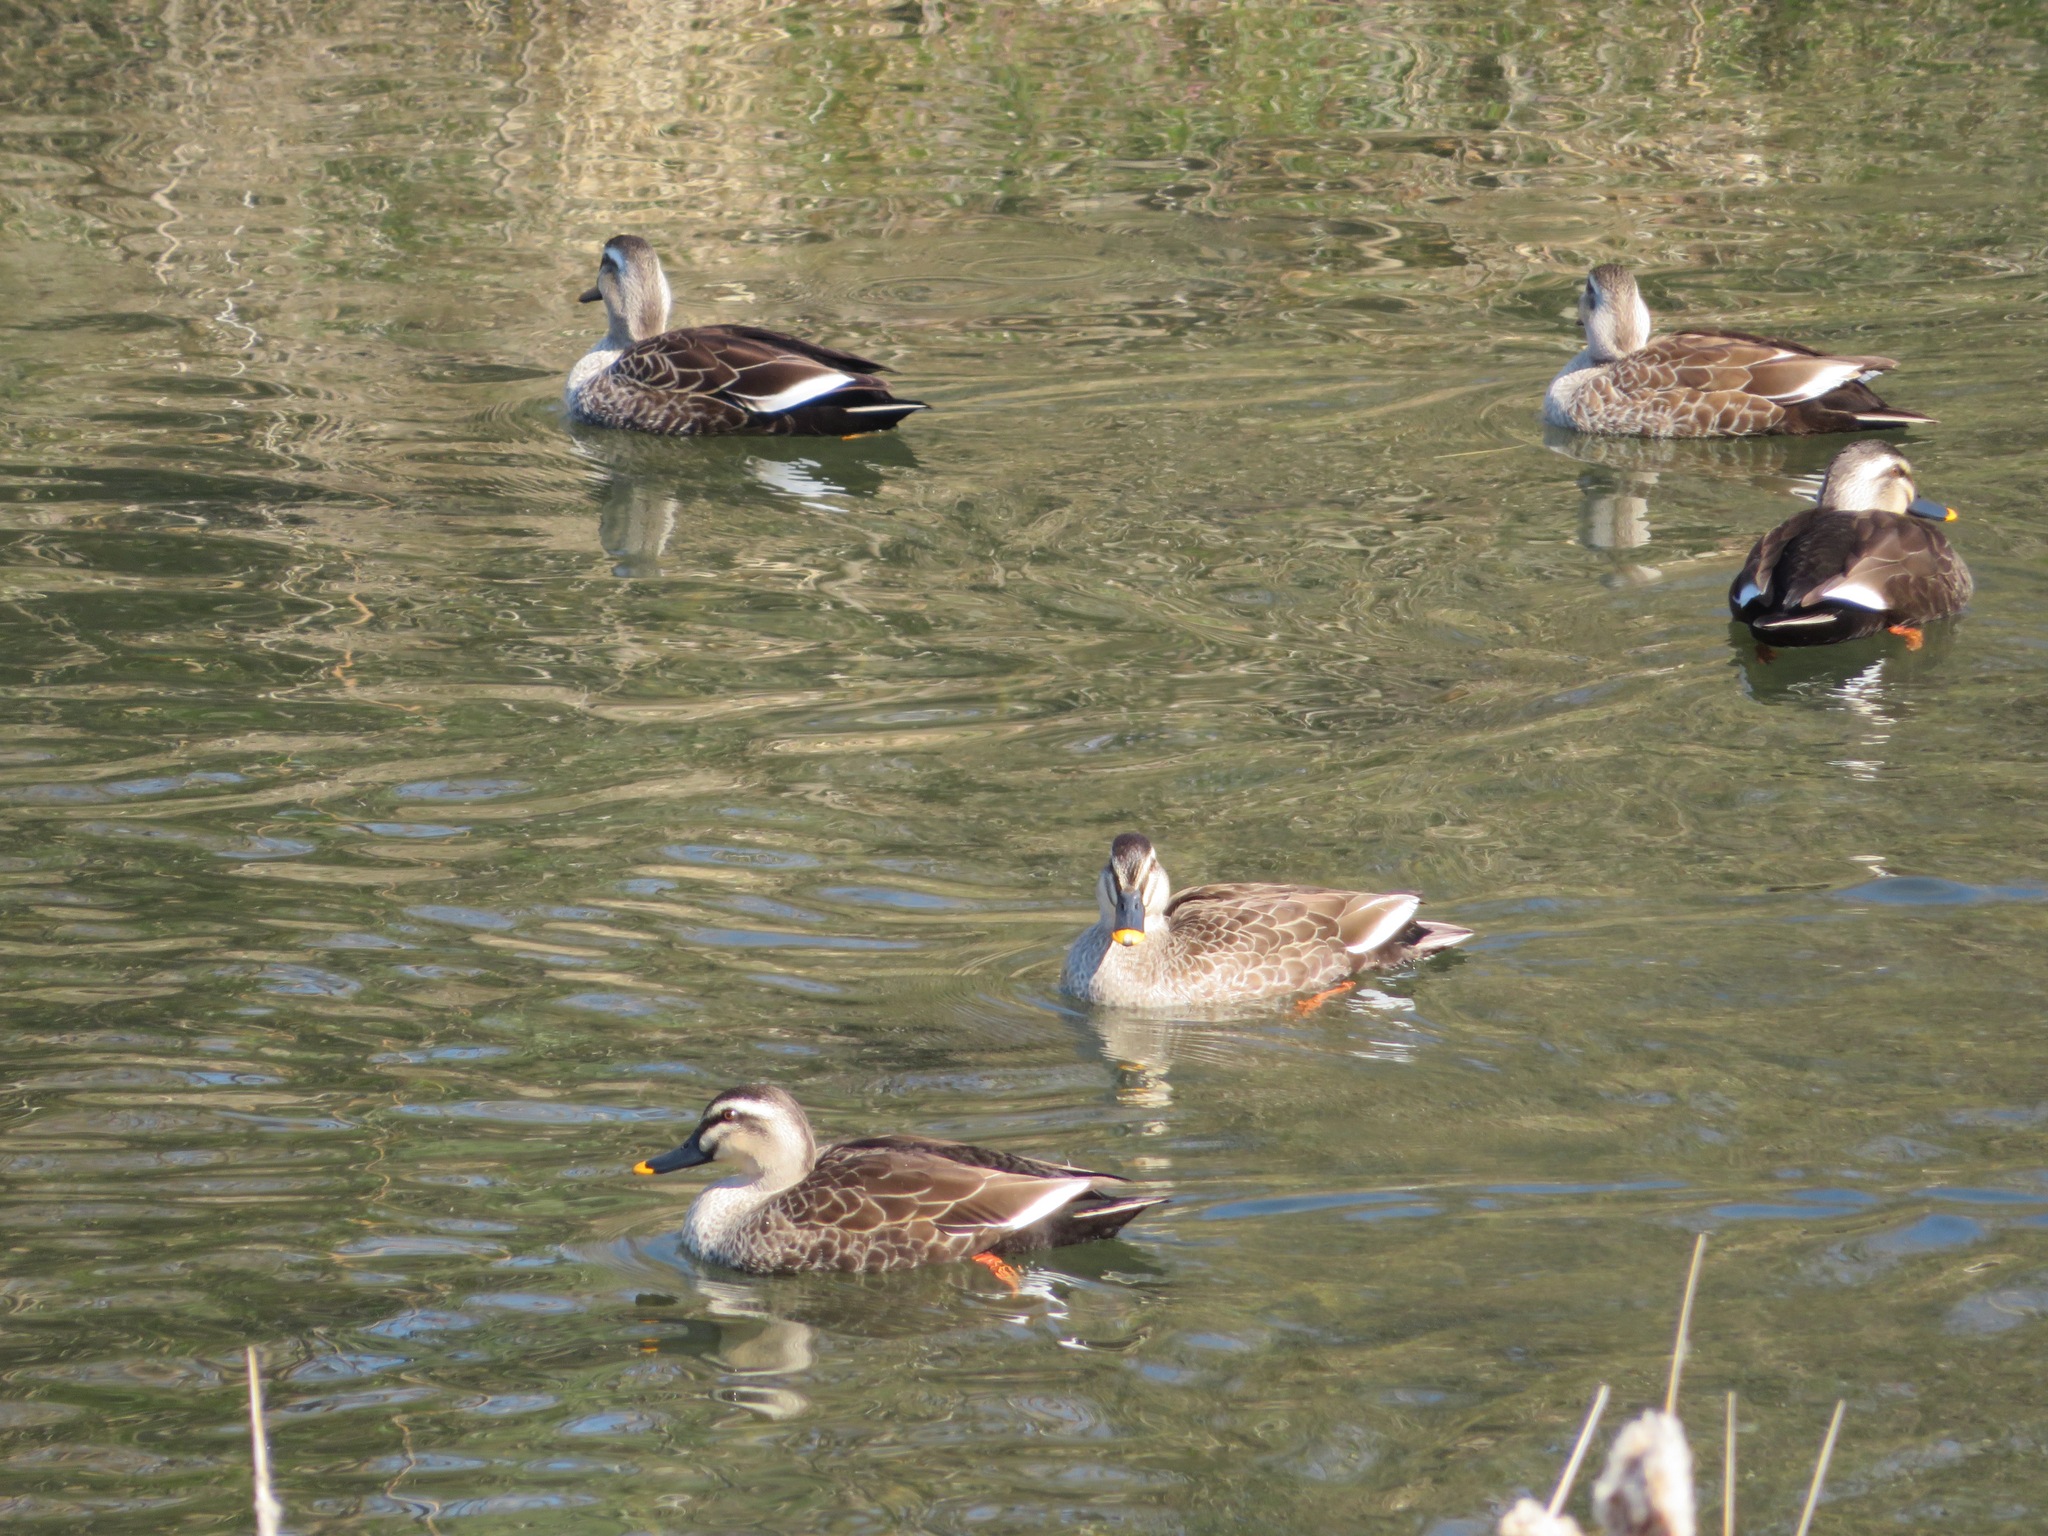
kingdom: Animalia
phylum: Chordata
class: Aves
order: Anseriformes
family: Anatidae
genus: Anas
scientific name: Anas zonorhyncha
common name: Eastern spot-billed duck
